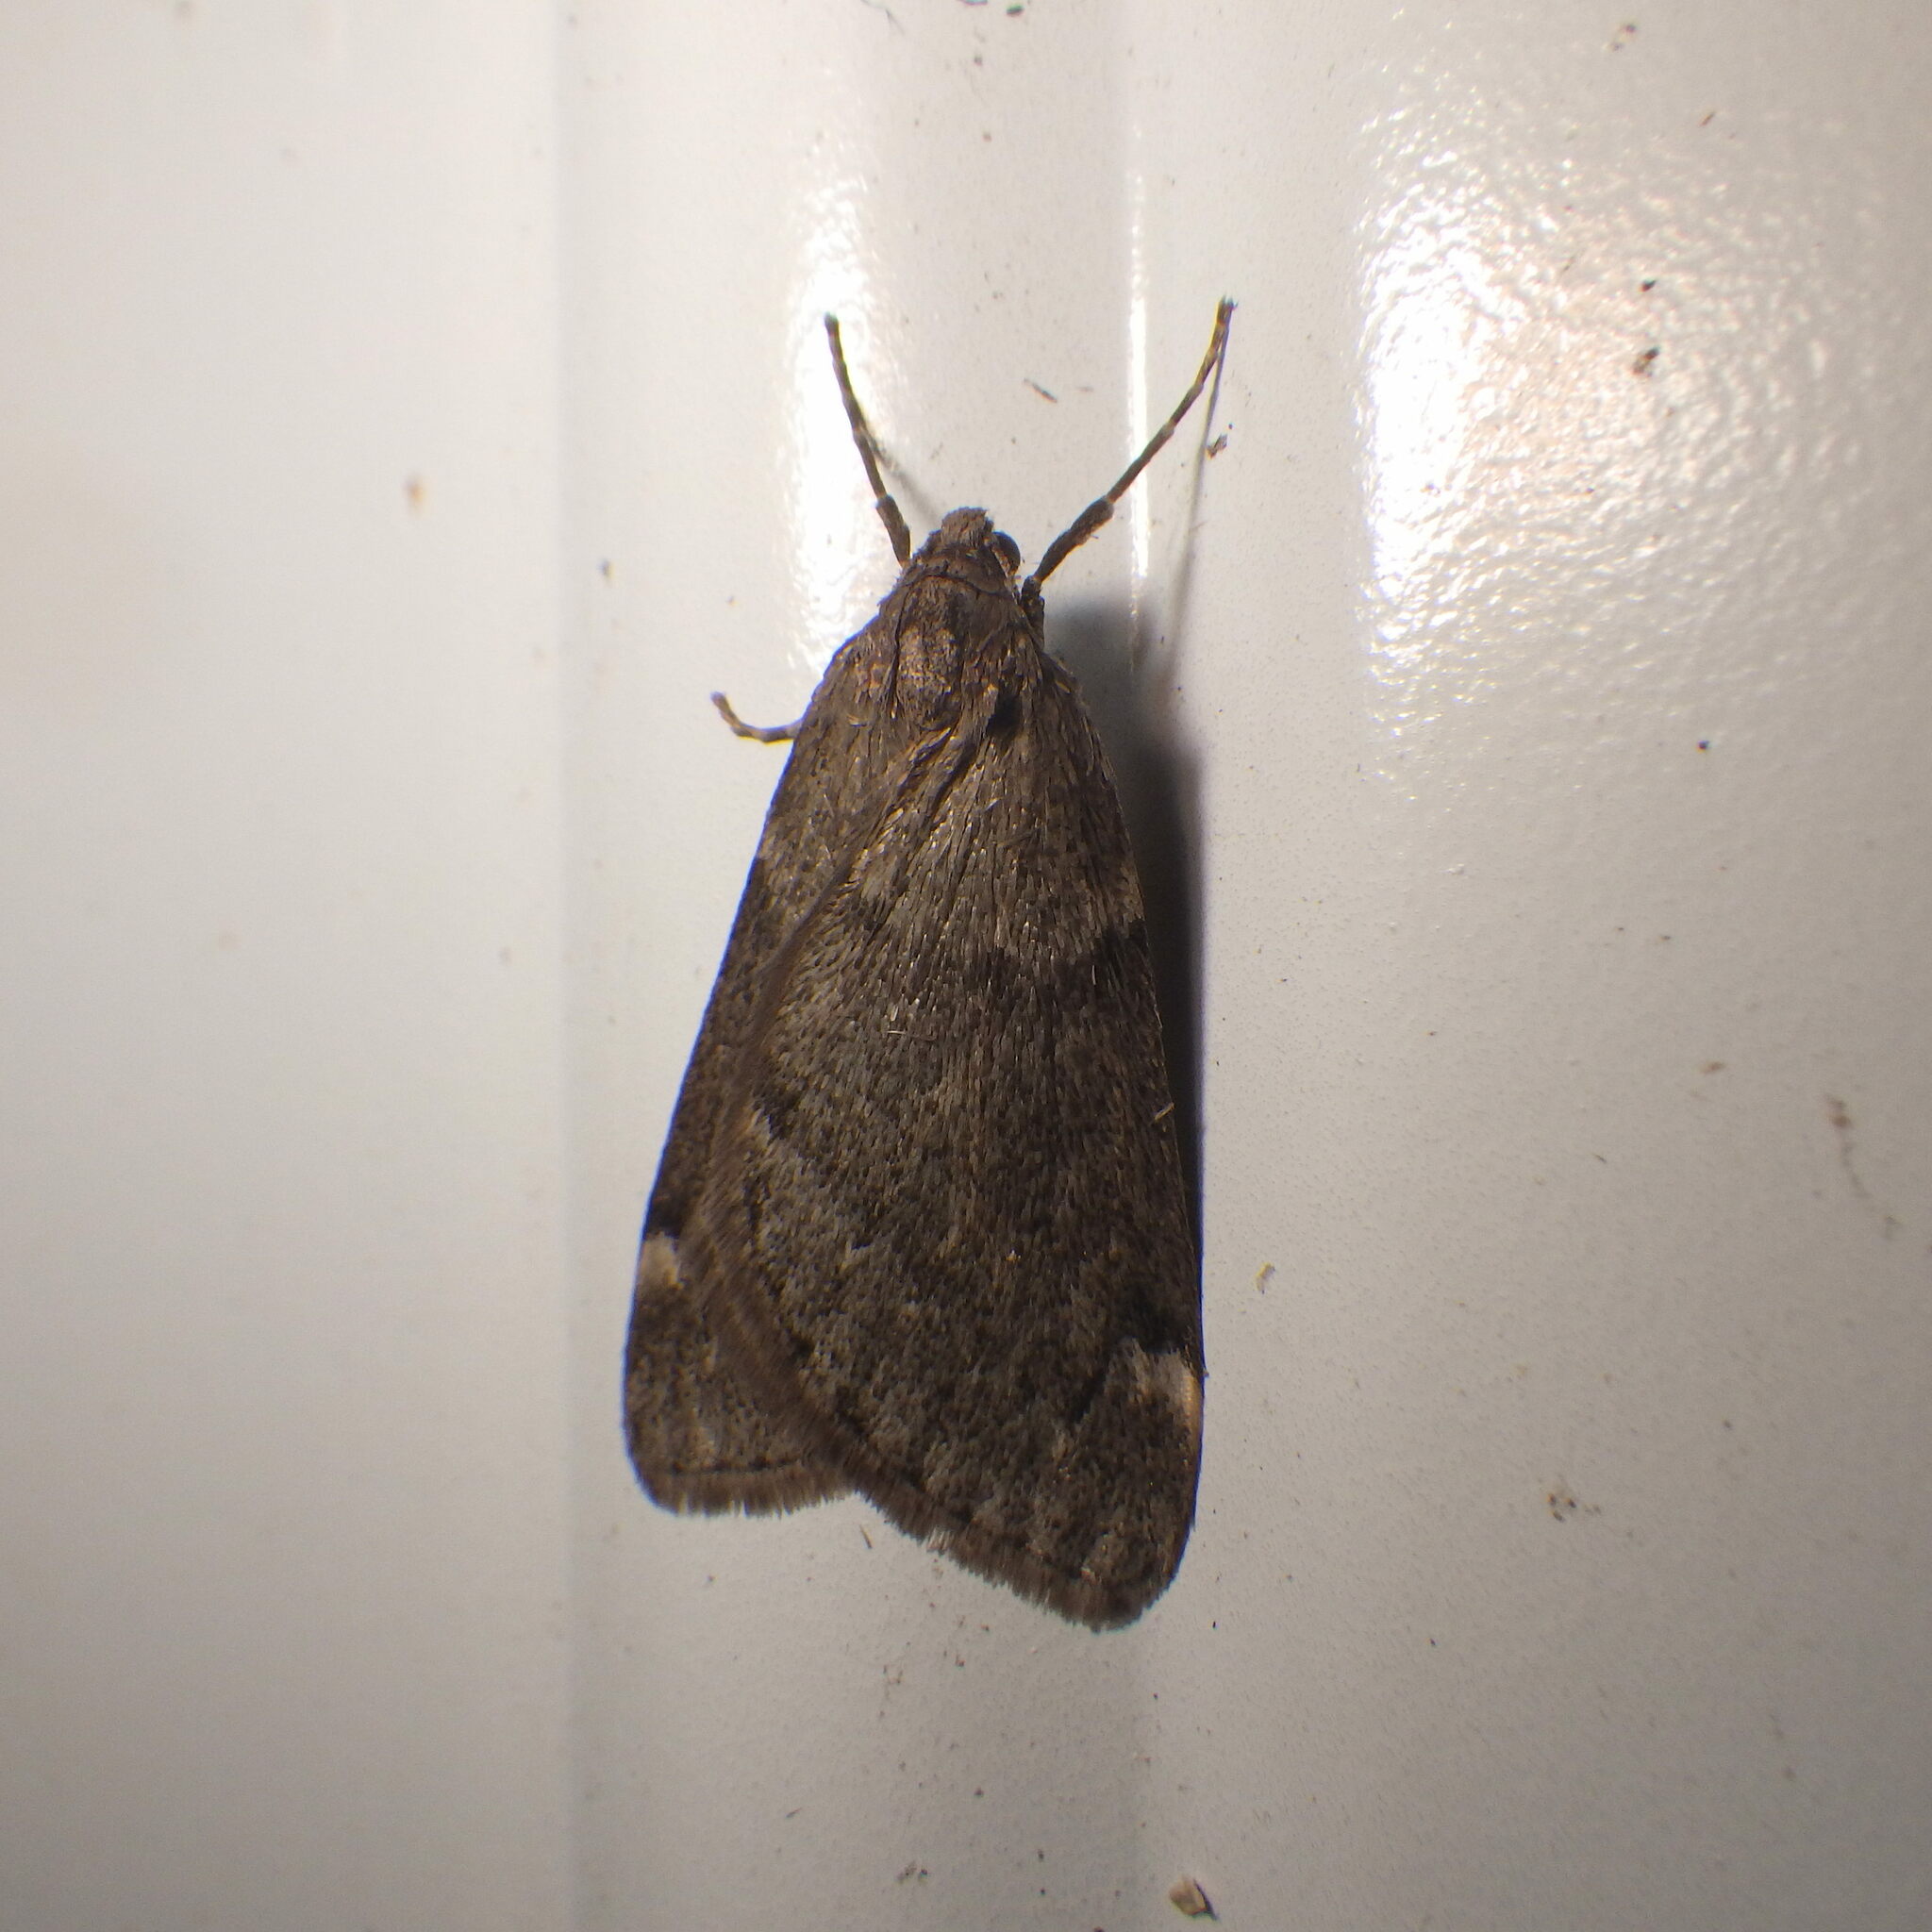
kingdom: Animalia
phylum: Arthropoda
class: Insecta
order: Lepidoptera
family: Geometridae
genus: Alsophila
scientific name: Alsophila pometaria
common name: Fall cankerworm
